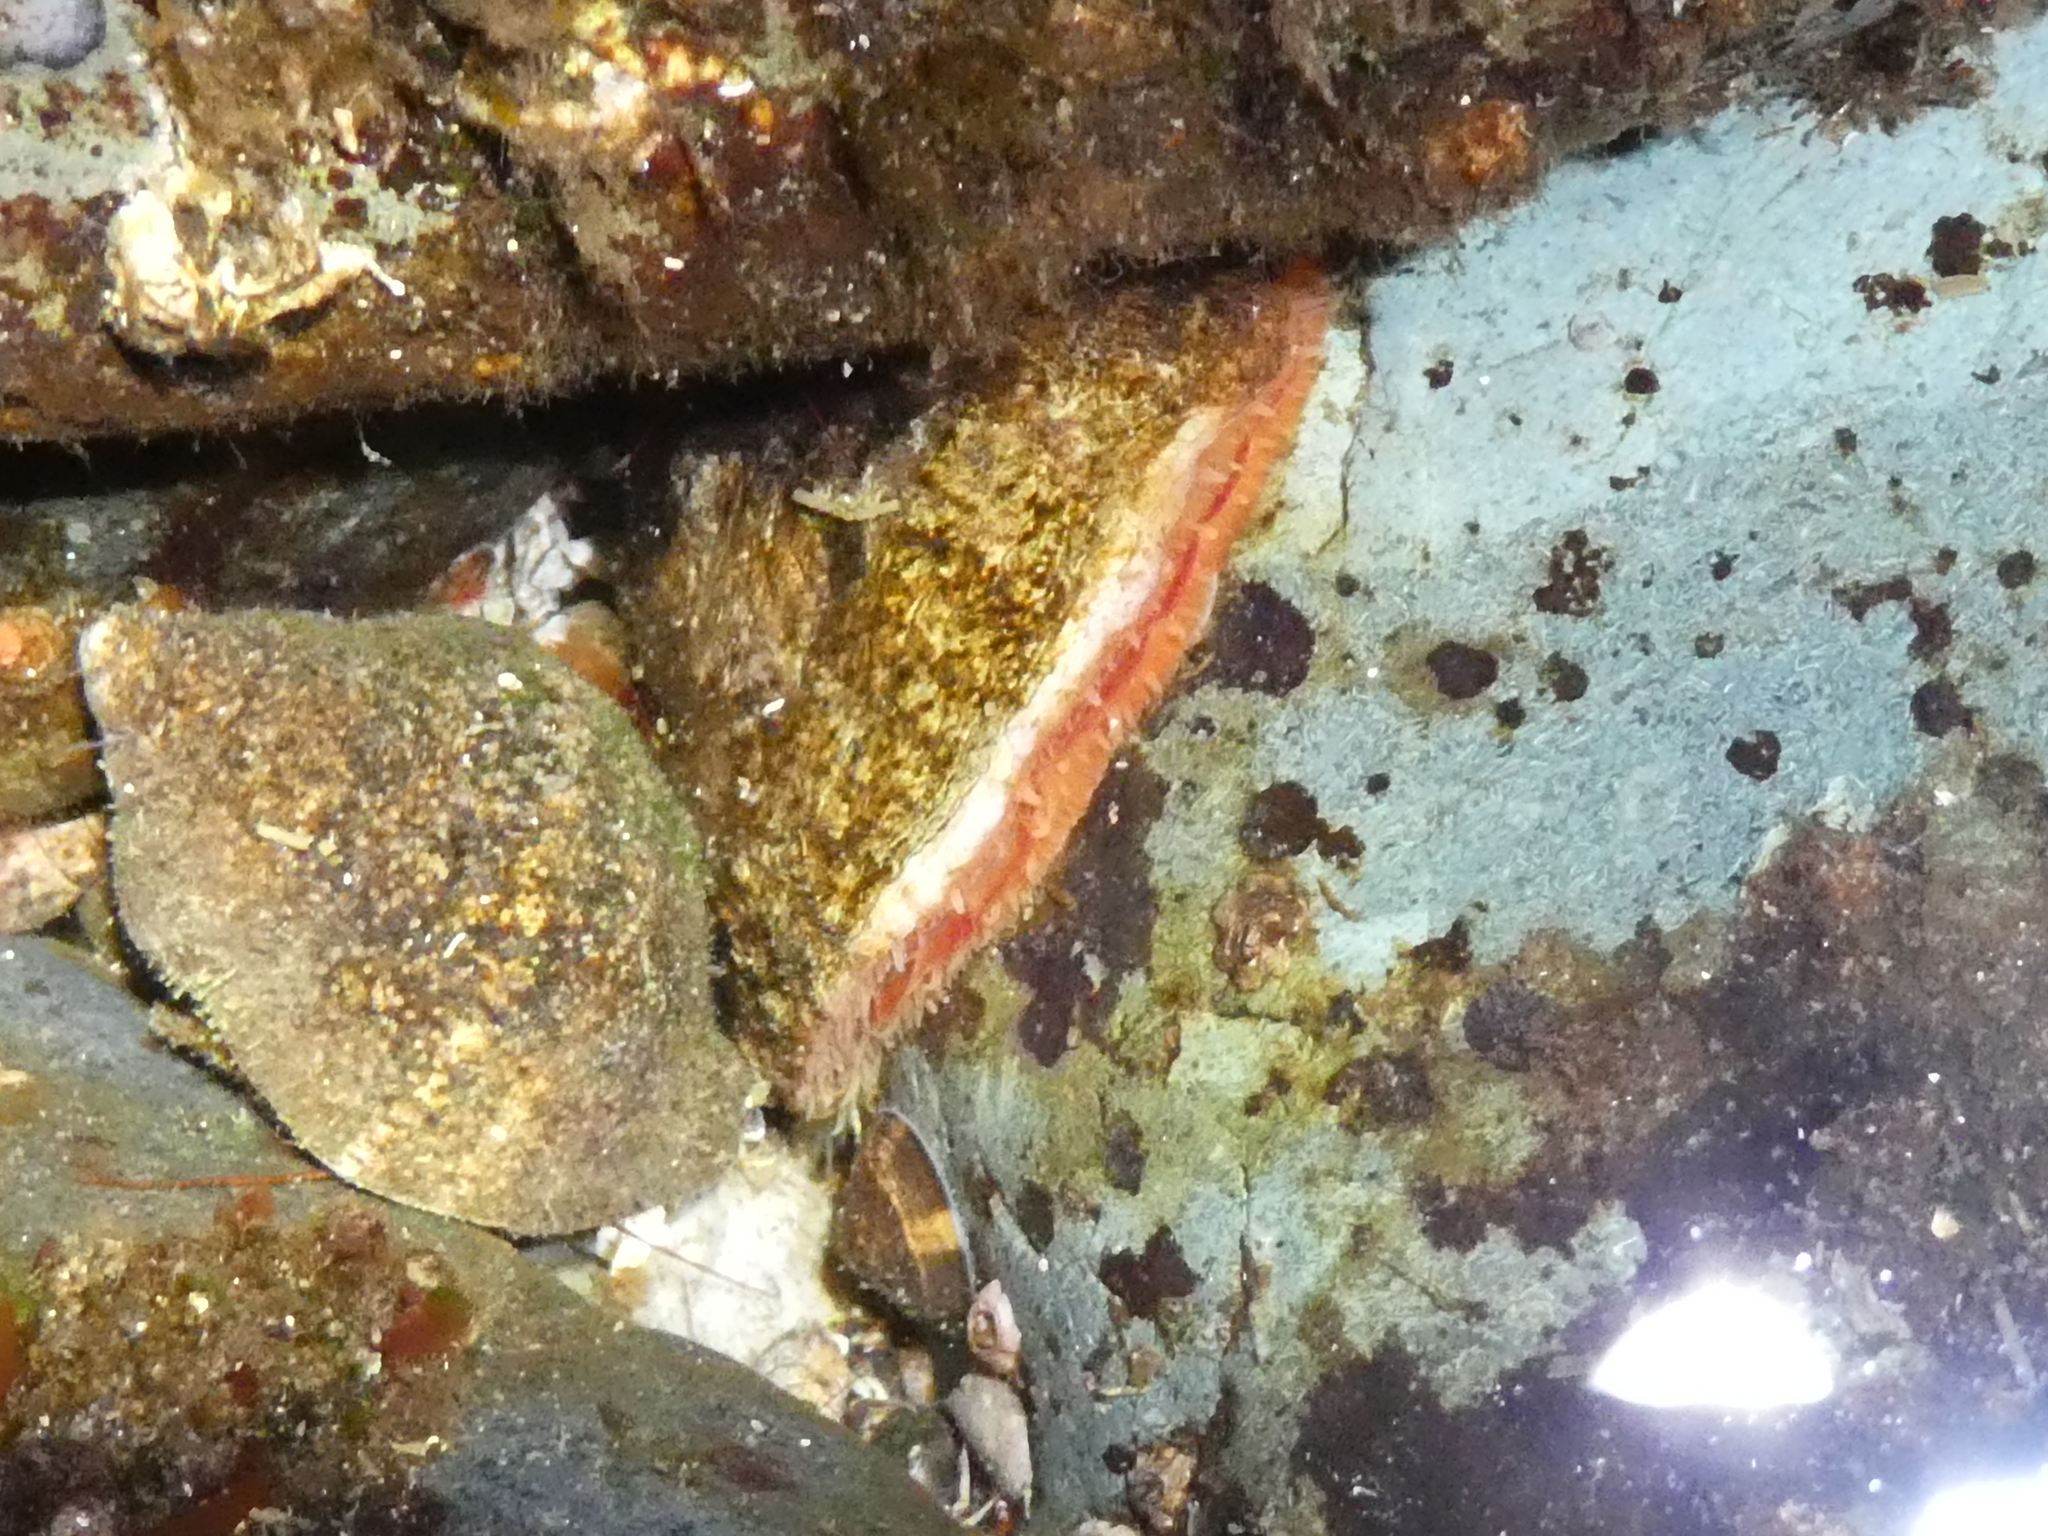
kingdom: Animalia
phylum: Mollusca
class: Bivalvia
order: Pectinida
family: Anomiidae
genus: Pododesmus
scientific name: Pododesmus macrochisma
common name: Alaska jingle
